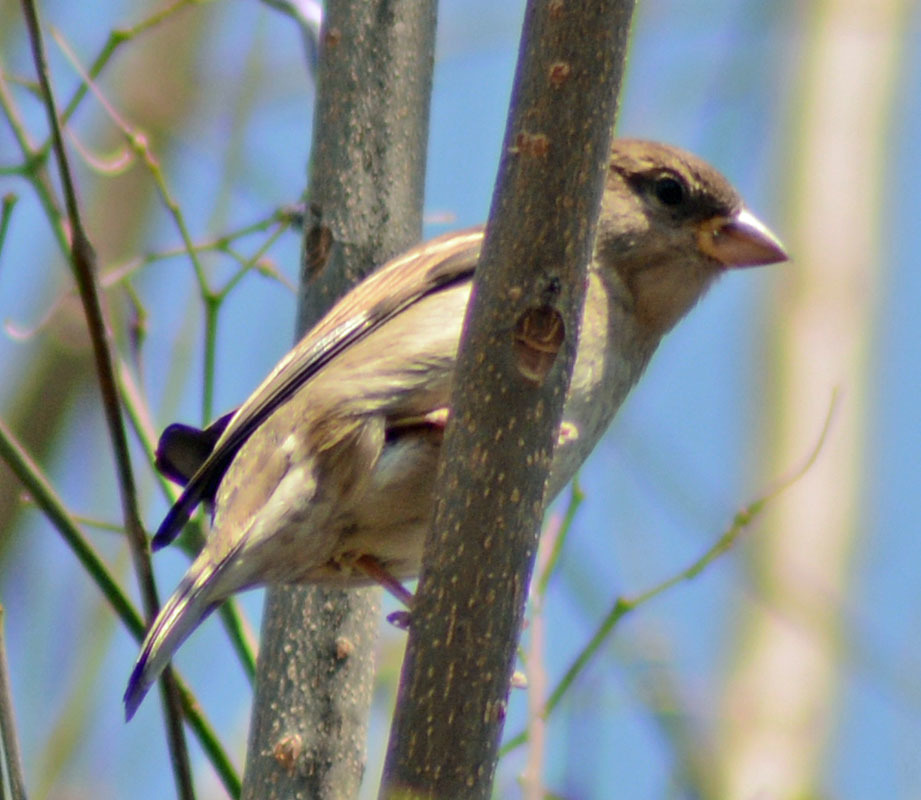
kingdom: Animalia
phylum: Chordata
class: Aves
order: Passeriformes
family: Passeridae
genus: Passer
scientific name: Passer domesticus
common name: House sparrow
